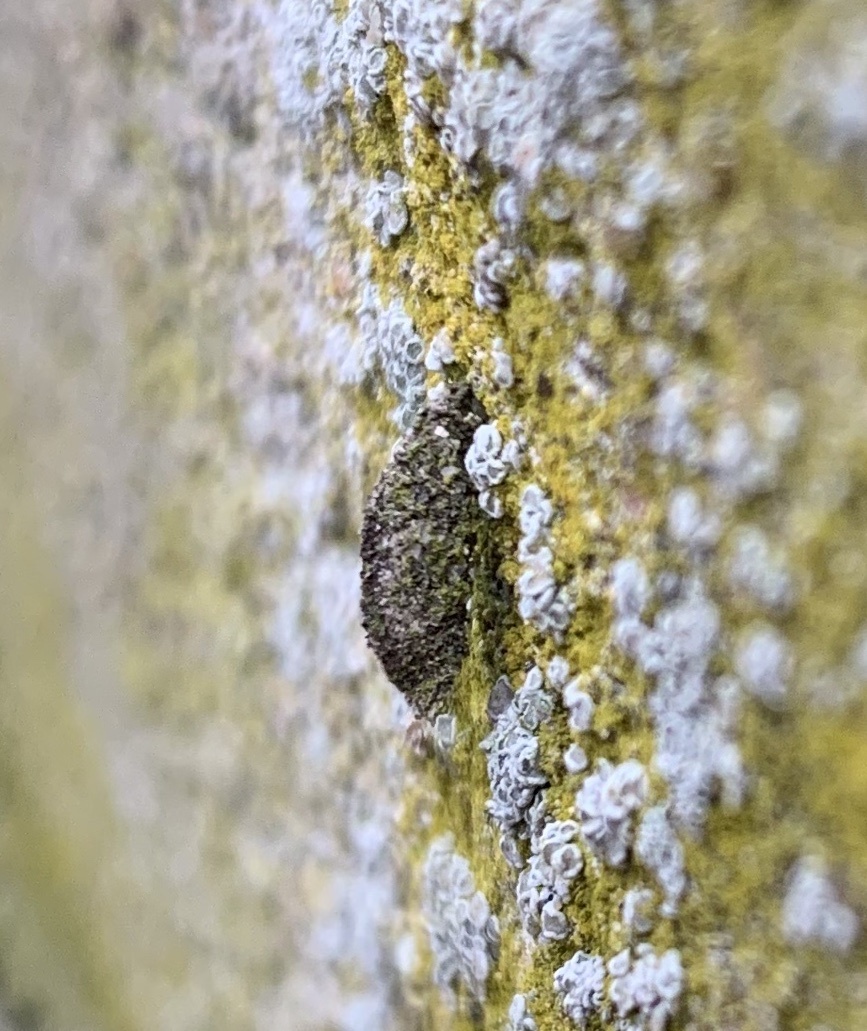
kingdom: Animalia
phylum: Arthropoda
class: Insecta
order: Lepidoptera
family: Psychidae
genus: Dahlica
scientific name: Dahlica triquetrella
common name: Narrow lichen case-bearer
